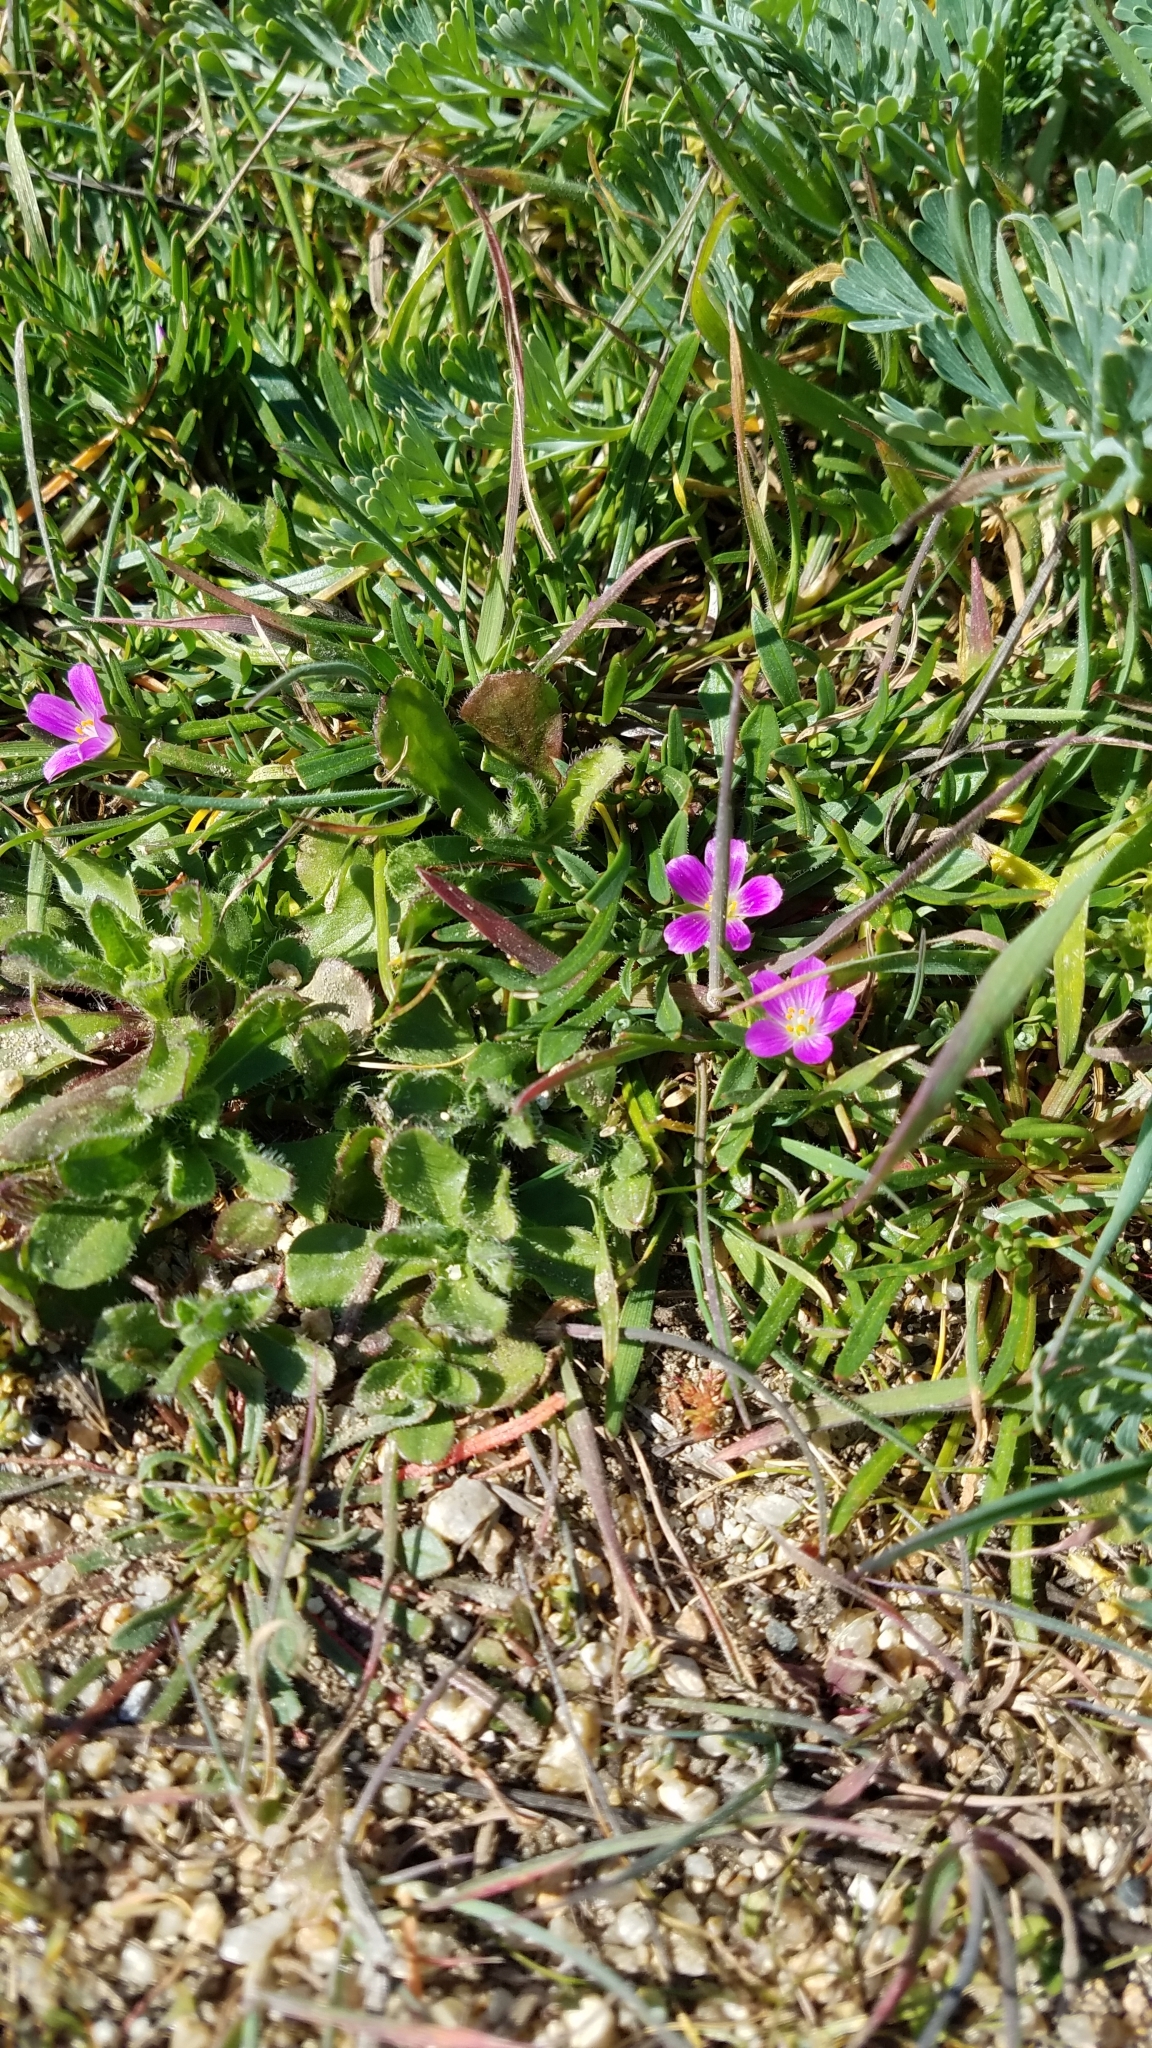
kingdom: Plantae
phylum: Tracheophyta
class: Magnoliopsida
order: Caryophyllales
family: Montiaceae
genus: Calandrinia
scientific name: Calandrinia menziesii
